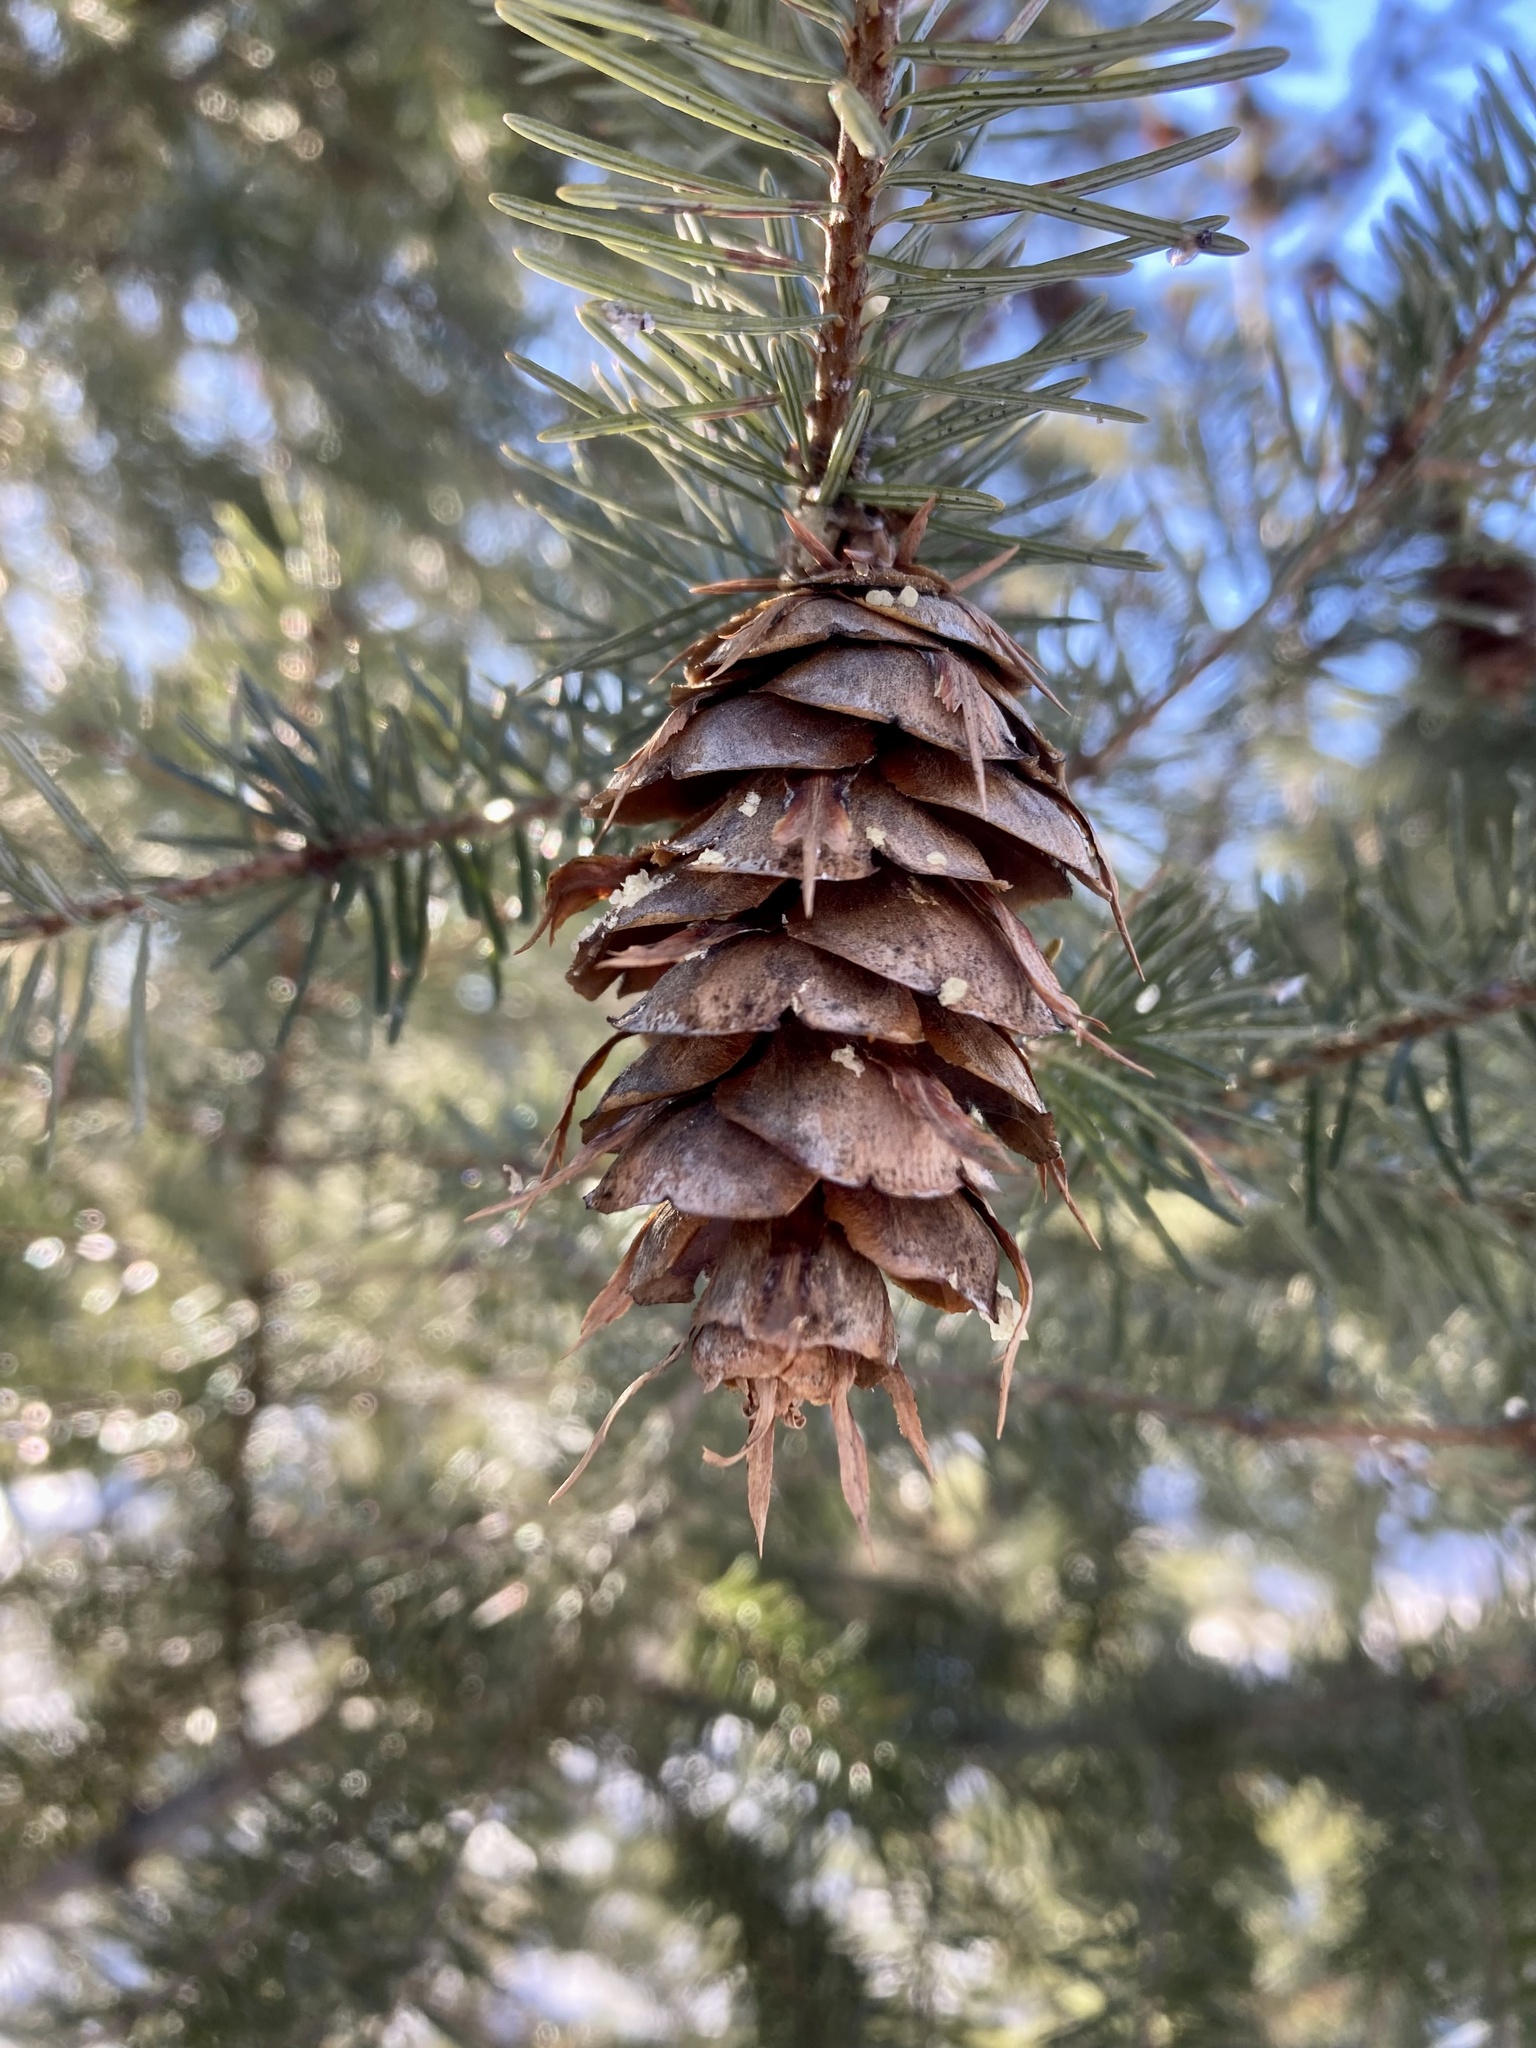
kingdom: Plantae
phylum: Tracheophyta
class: Pinopsida
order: Pinales
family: Pinaceae
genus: Pseudotsuga
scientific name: Pseudotsuga menziesii
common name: Douglas fir
